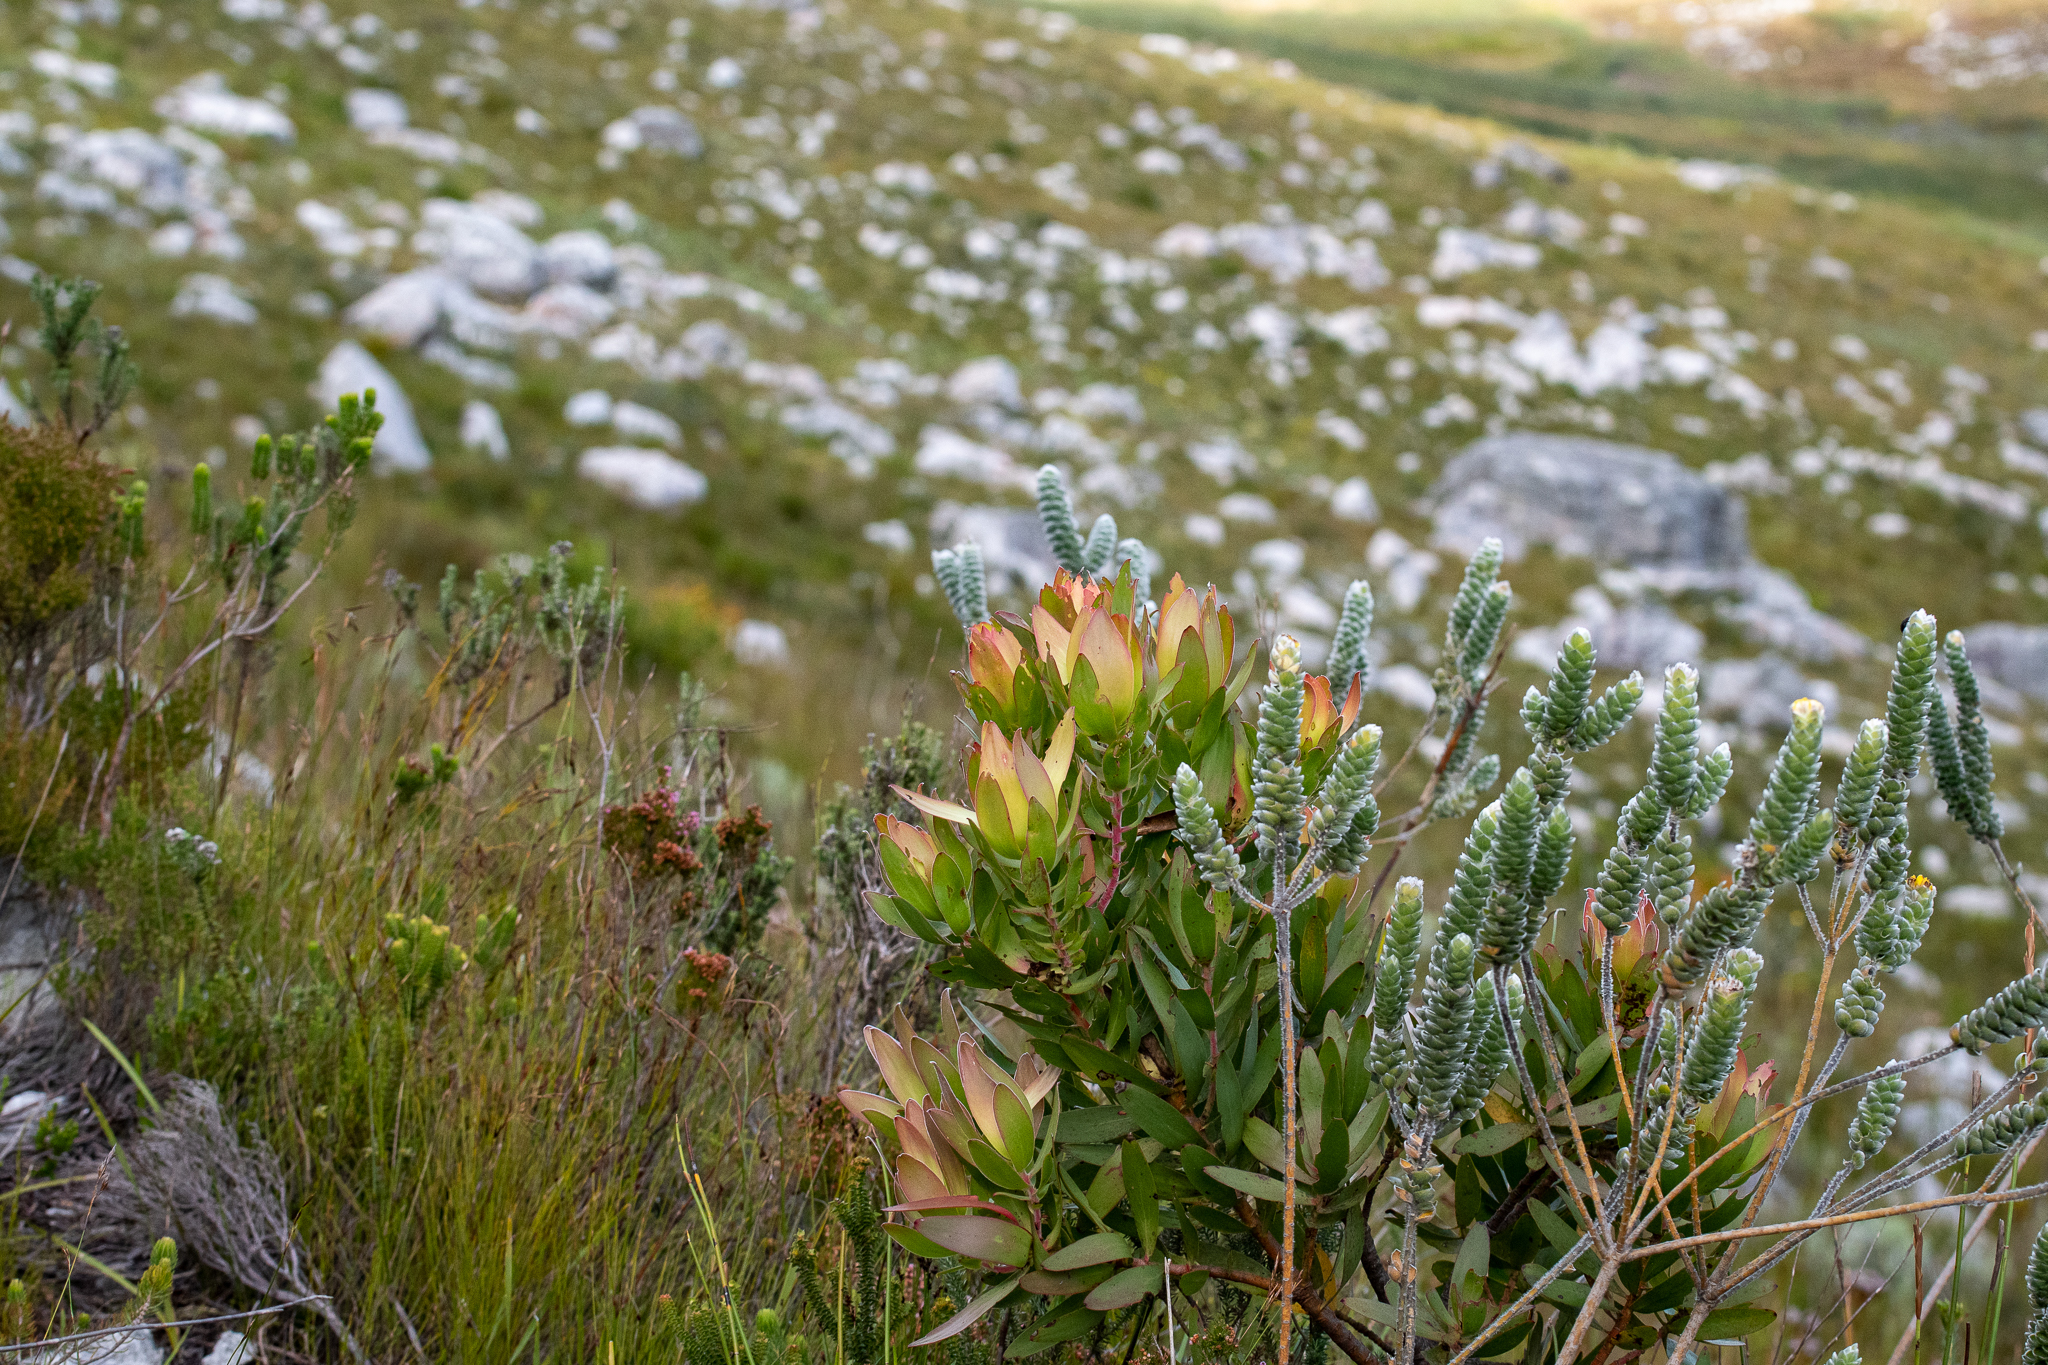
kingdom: Plantae
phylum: Tracheophyta
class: Magnoliopsida
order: Proteales
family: Proteaceae
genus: Leucadendron
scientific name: Leucadendron gandogeri
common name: Broad-leaf conebush
